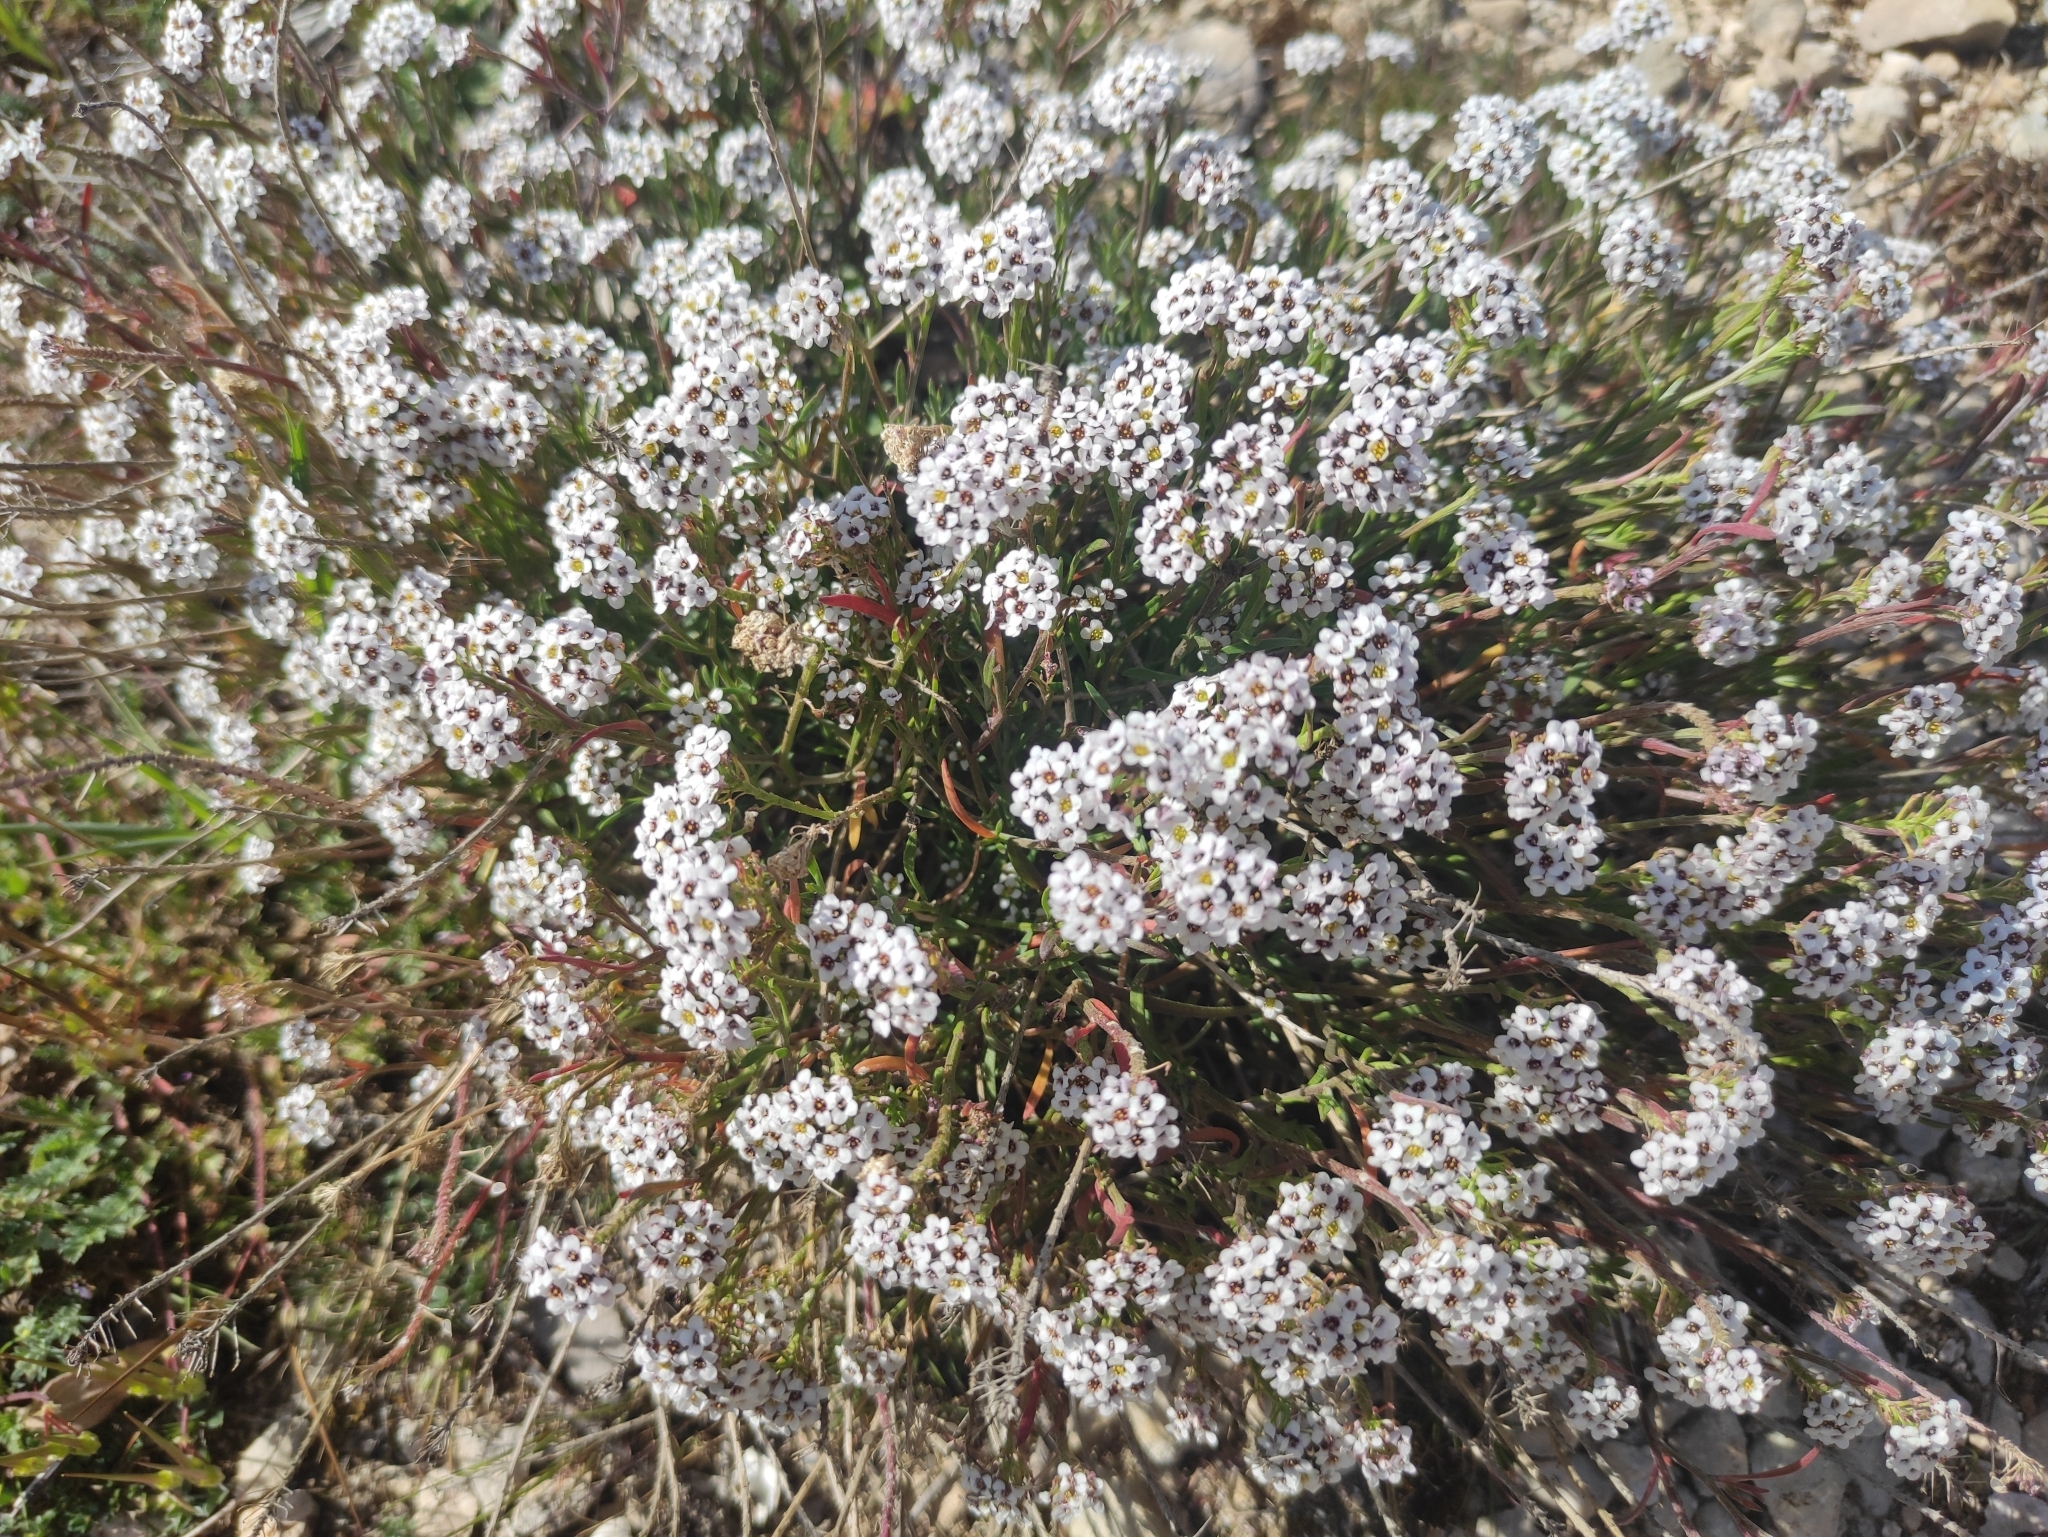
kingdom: Plantae
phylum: Tracheophyta
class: Magnoliopsida
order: Brassicales
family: Brassicaceae
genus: Lobularia
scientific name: Lobularia maritima
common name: Sweet alison
